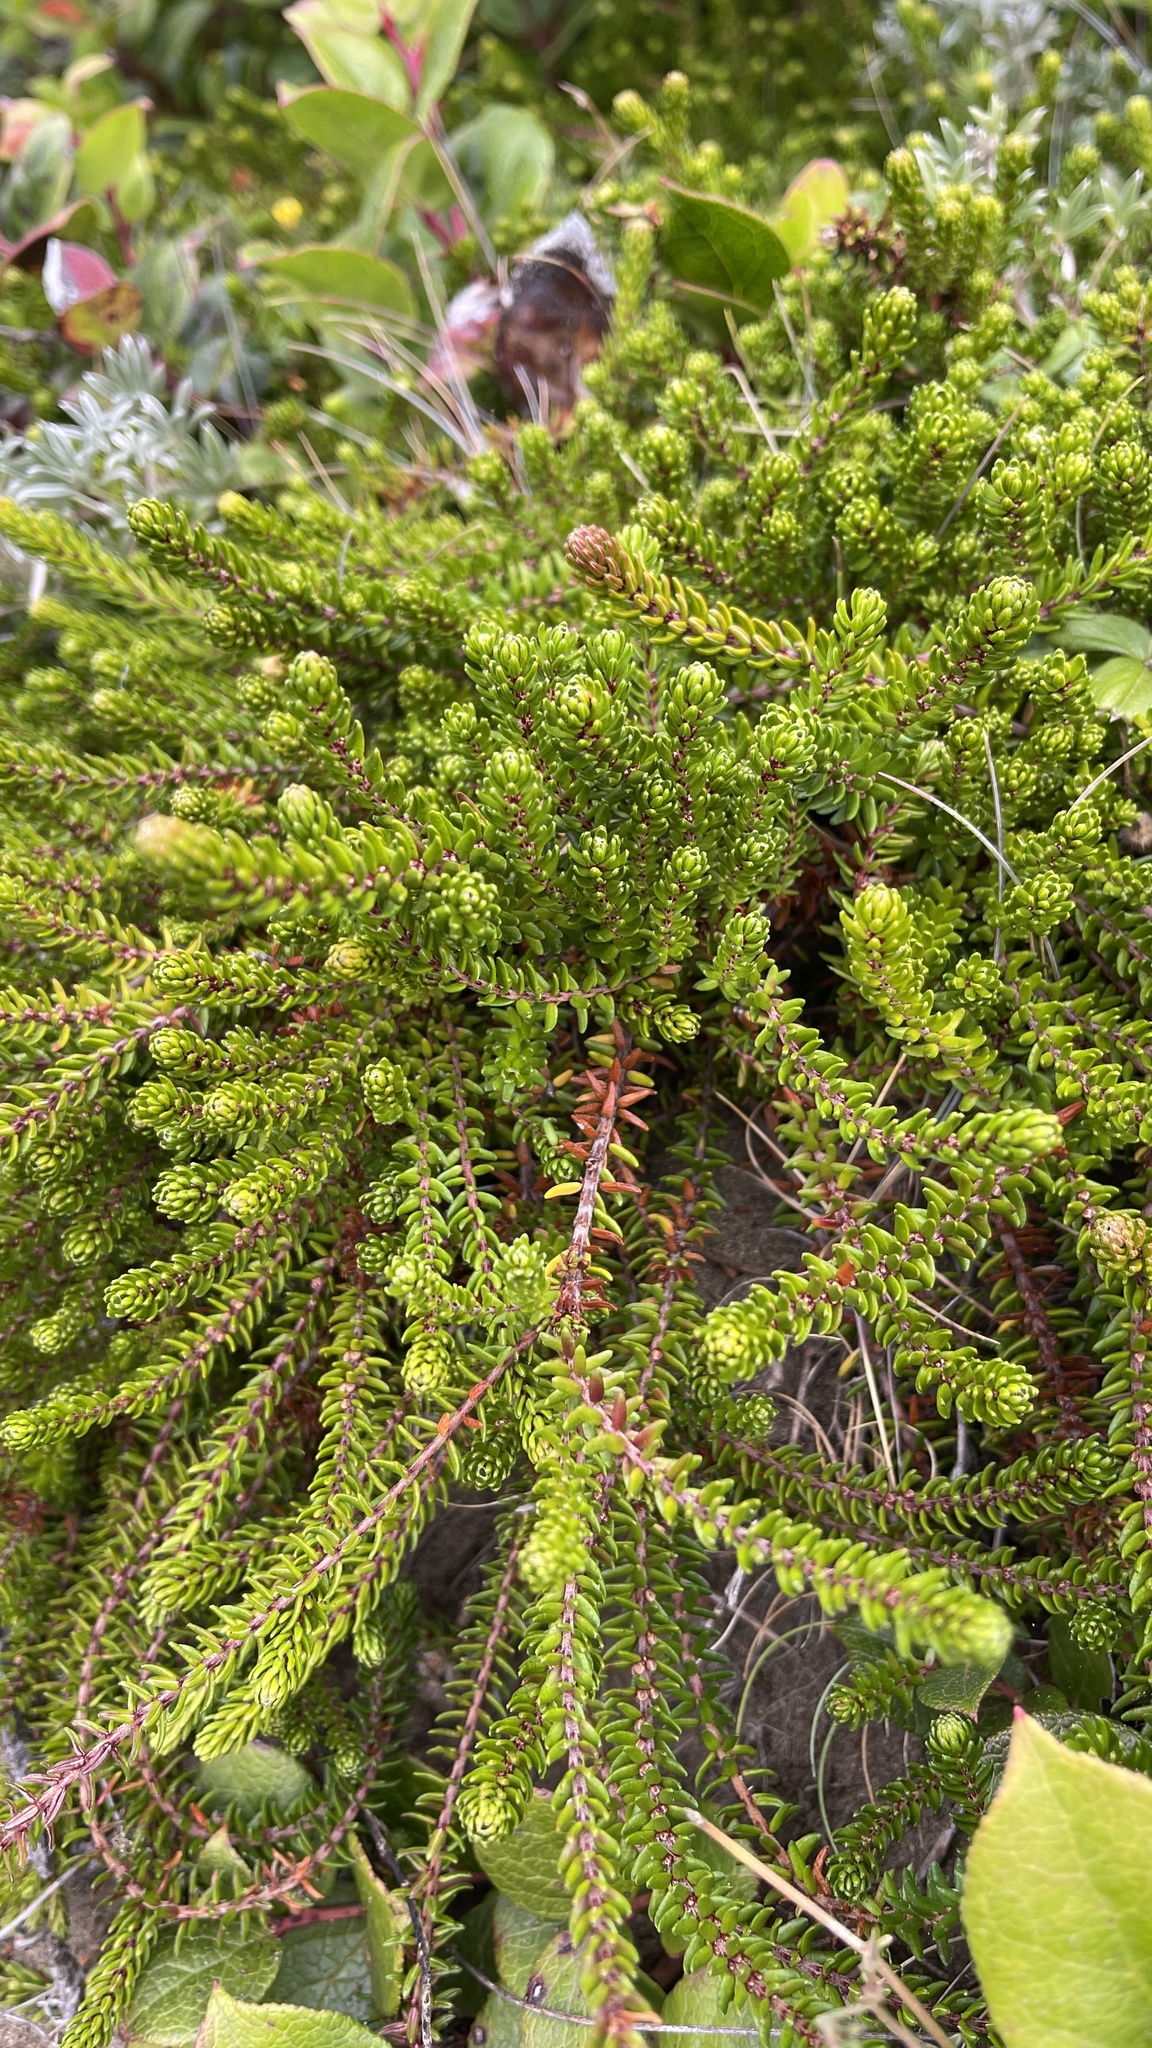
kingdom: Plantae
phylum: Tracheophyta
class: Magnoliopsida
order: Ericales
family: Ericaceae
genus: Empetrum
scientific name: Empetrum nigrum
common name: Black crowberry
